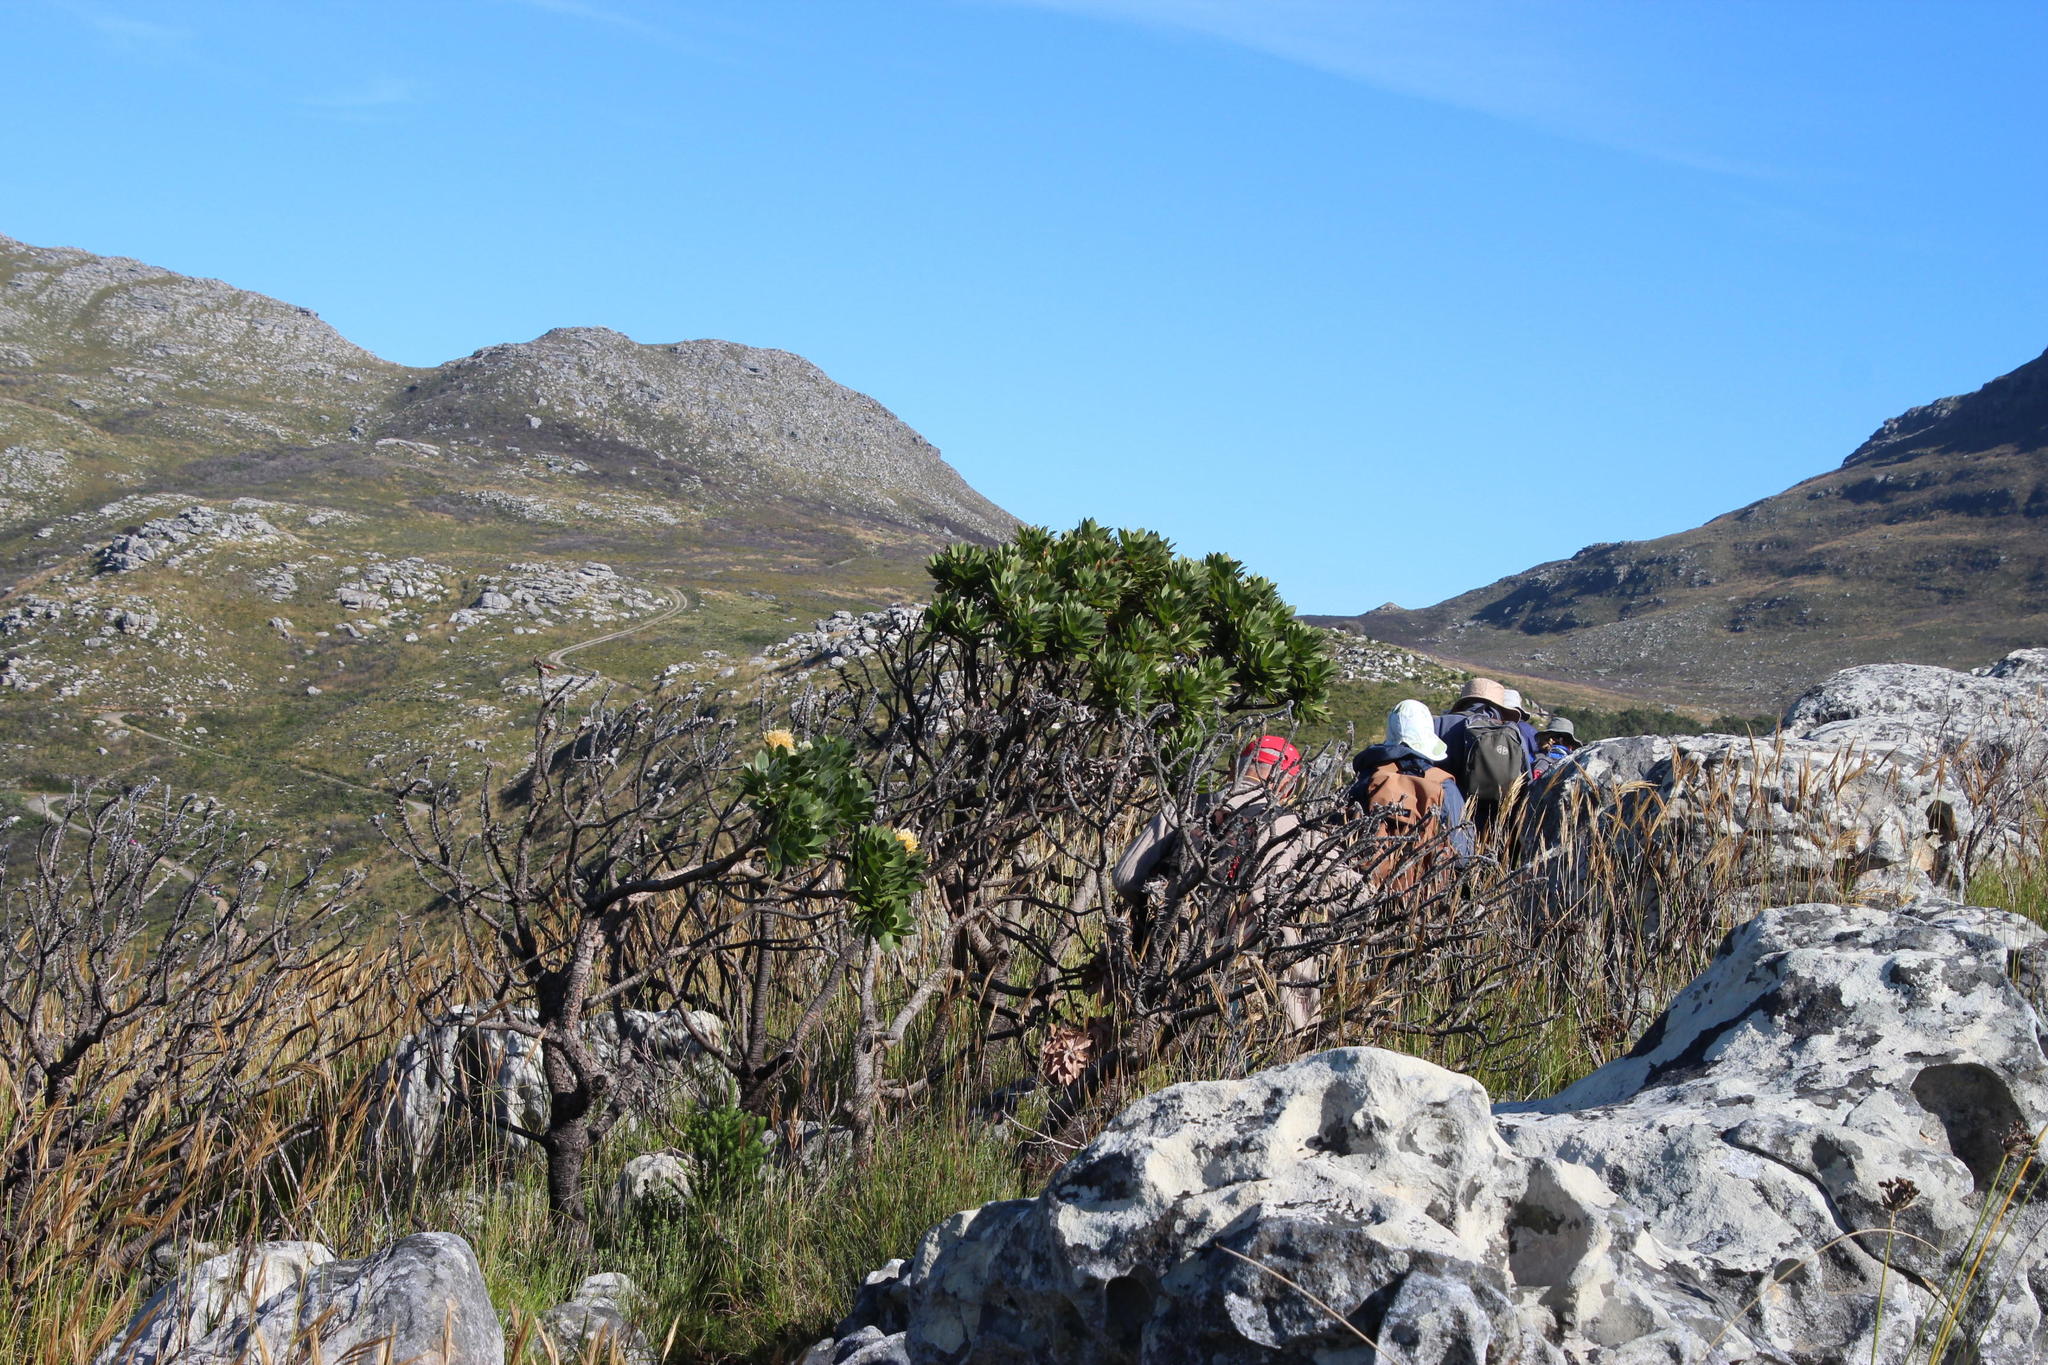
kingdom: Plantae
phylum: Tracheophyta
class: Magnoliopsida
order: Proteales
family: Proteaceae
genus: Leucospermum
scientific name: Leucospermum conocarpodendron
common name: Tree pincushion
